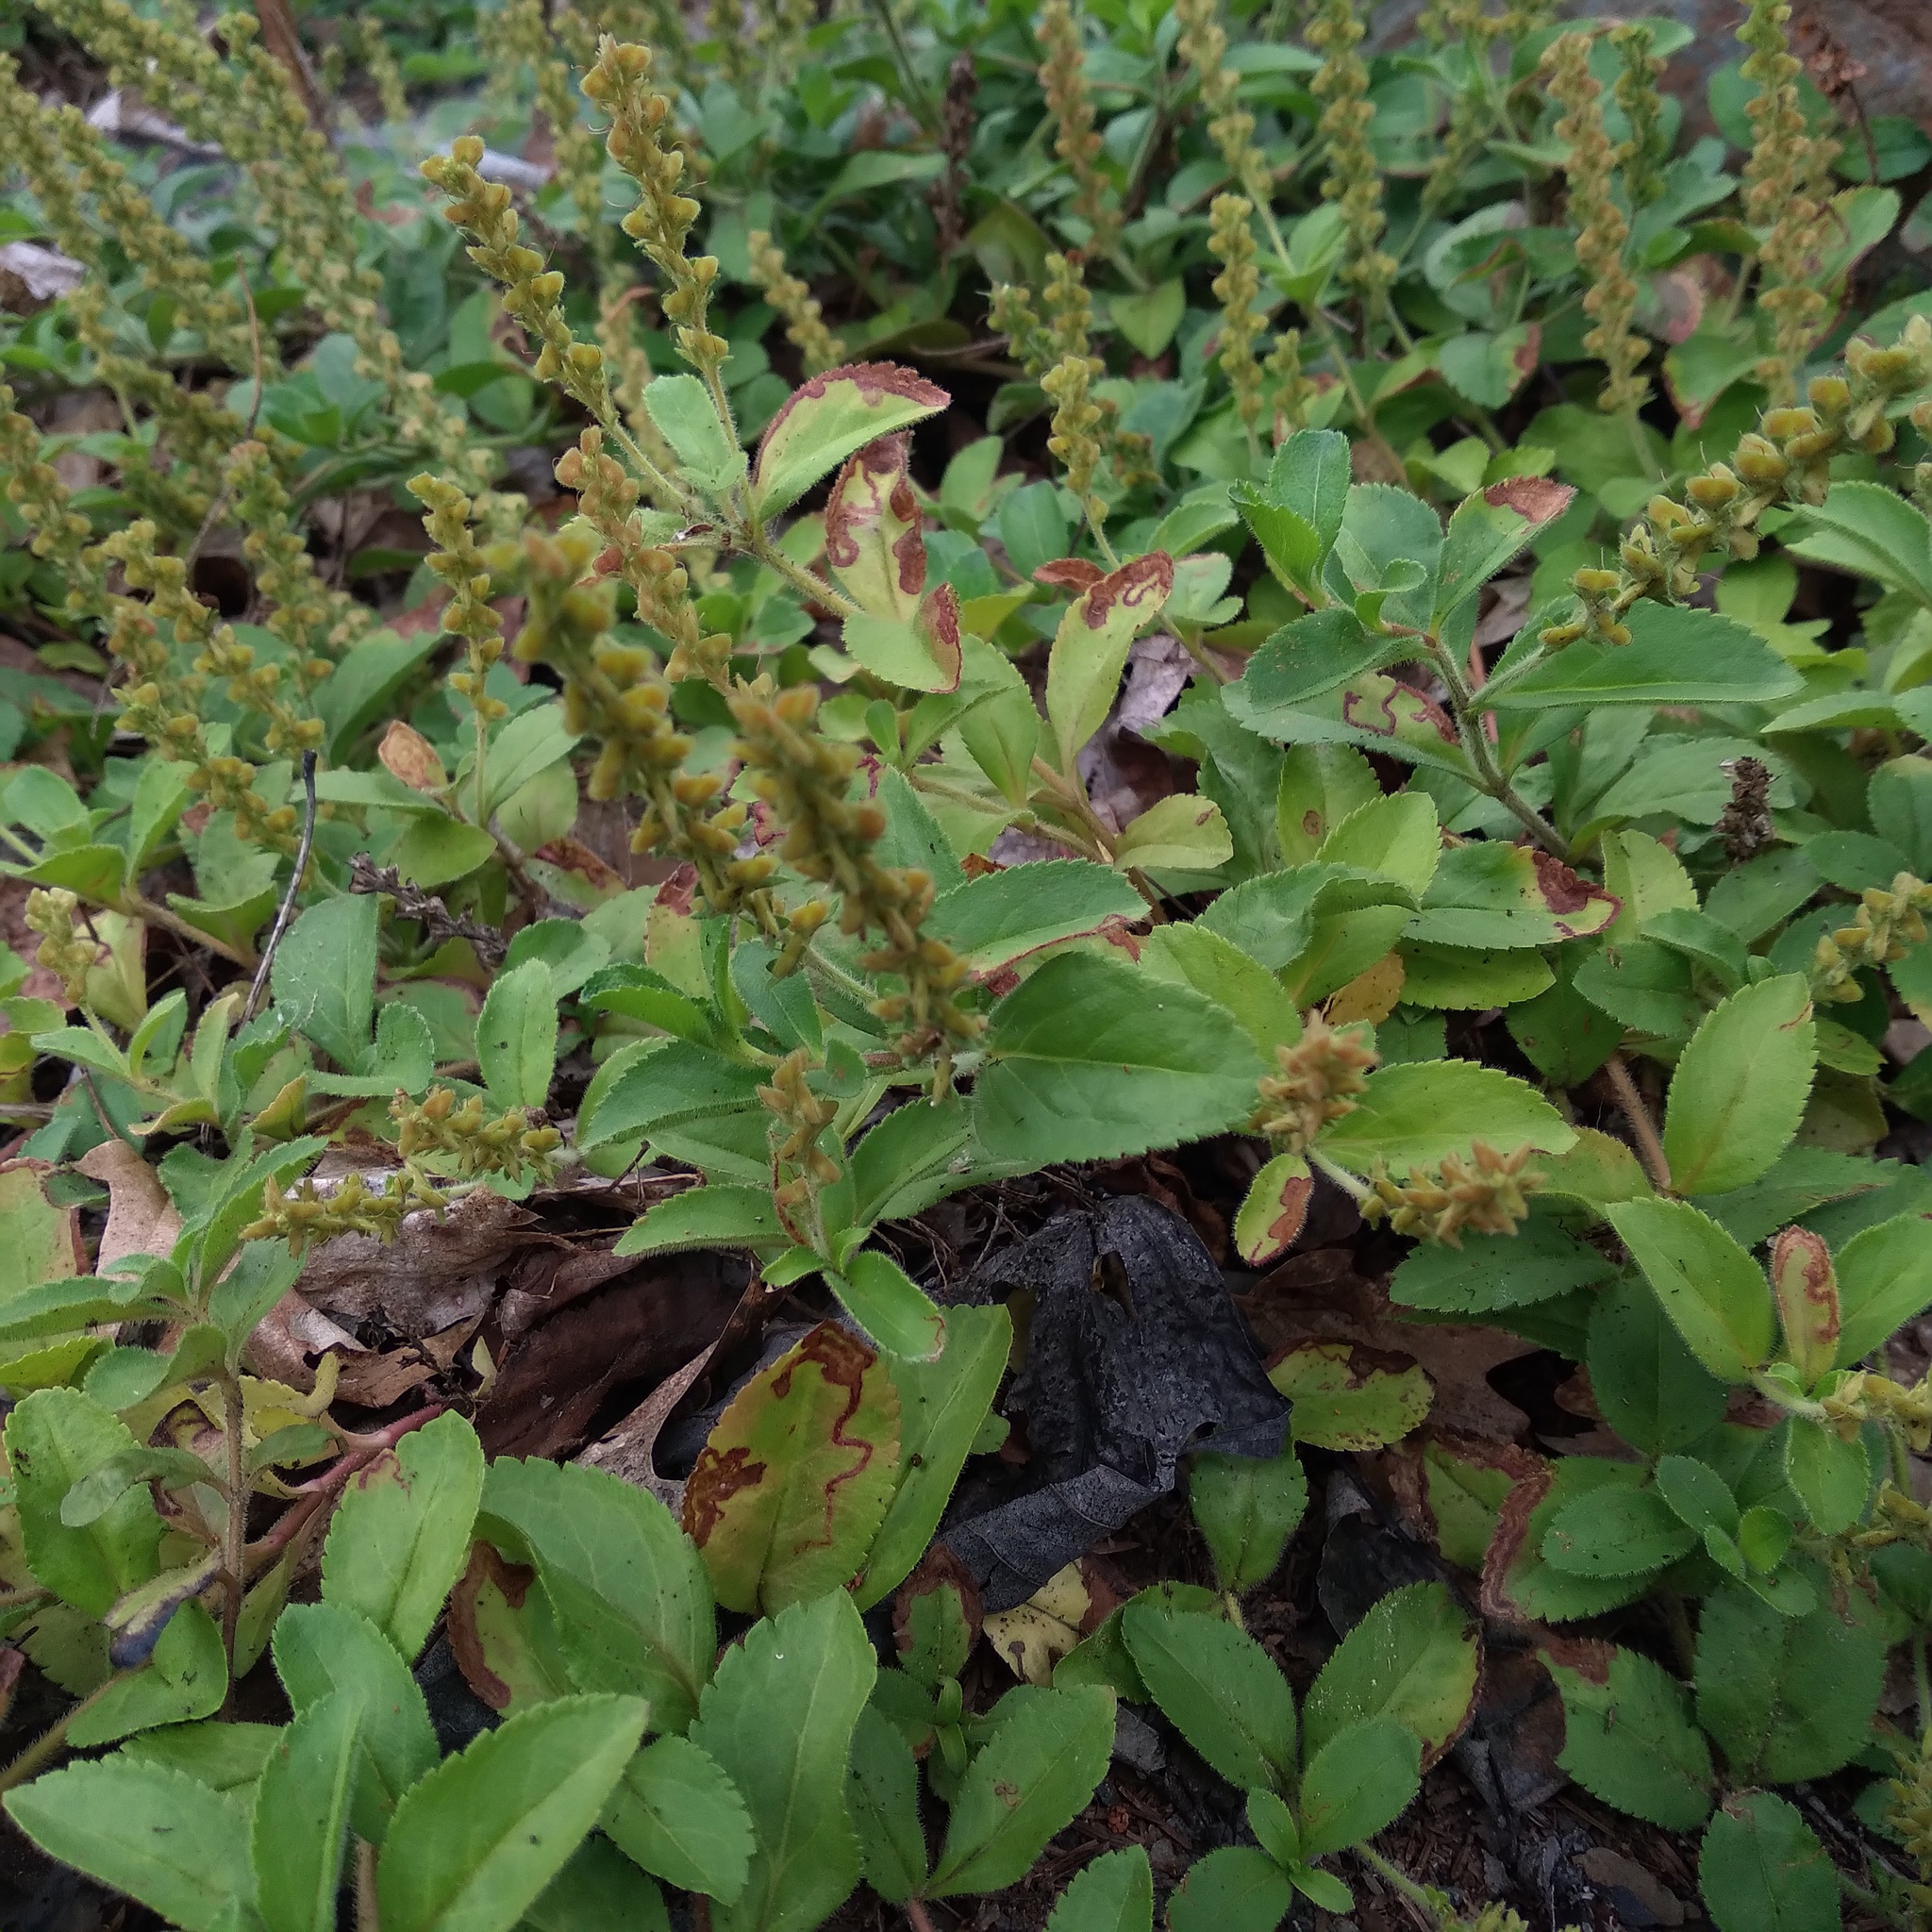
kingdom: Plantae
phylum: Tracheophyta
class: Magnoliopsida
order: Lamiales
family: Plantaginaceae
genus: Veronica
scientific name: Veronica officinalis
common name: Common speedwell
